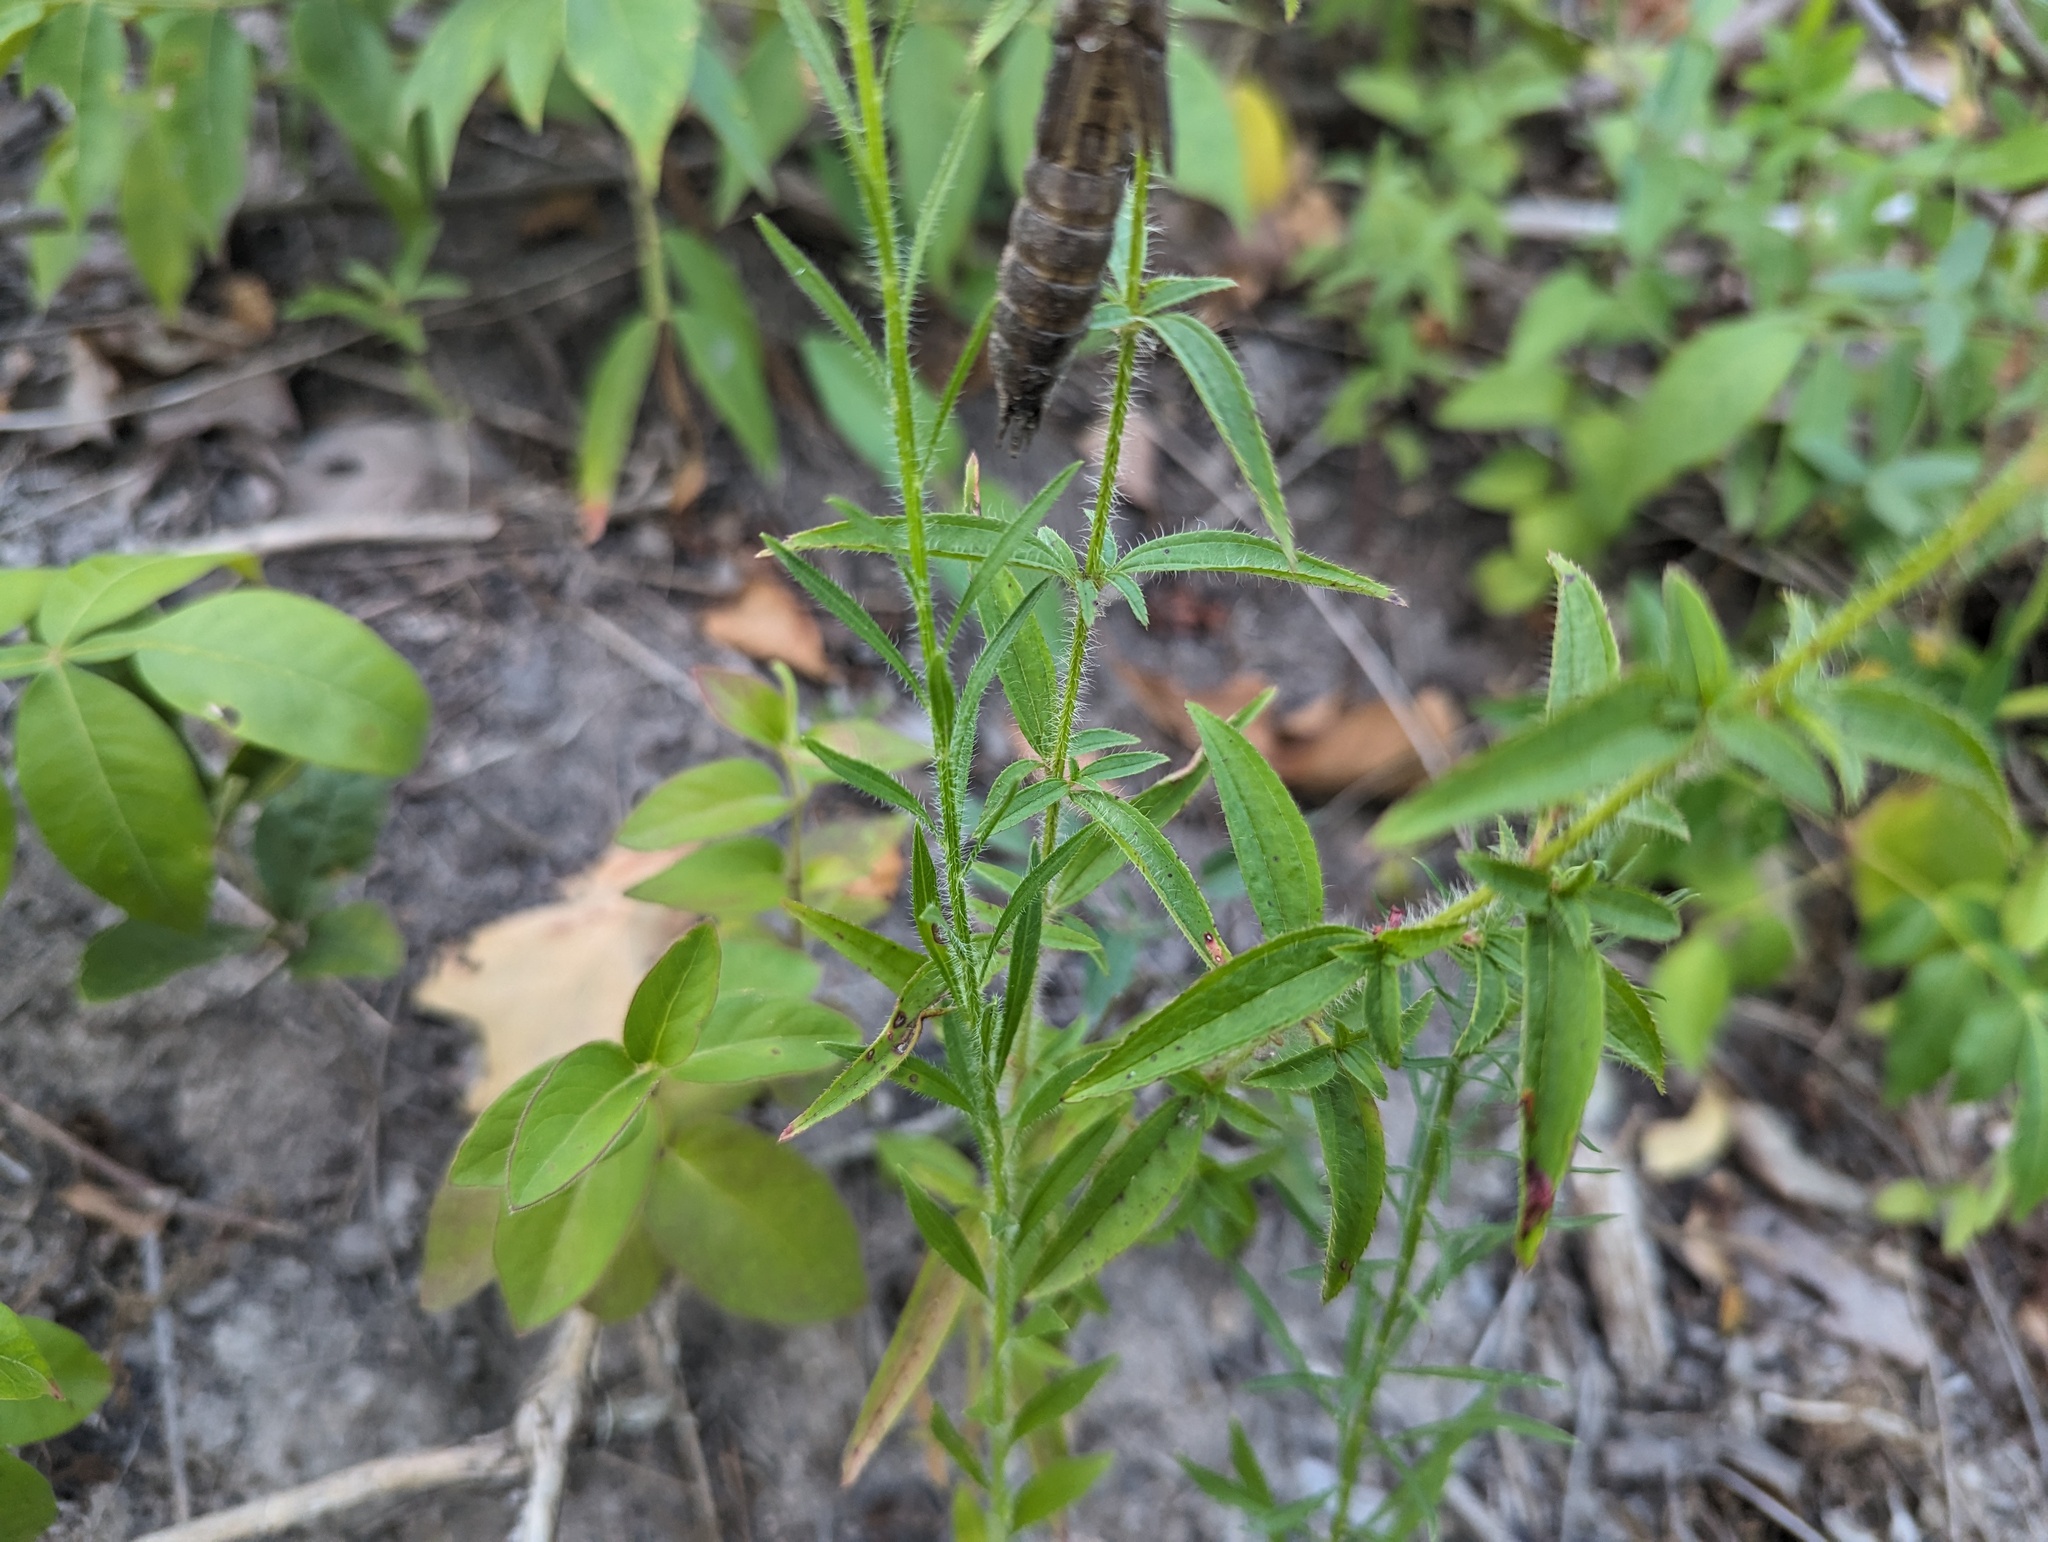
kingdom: Plantae
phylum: Tracheophyta
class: Magnoliopsida
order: Myrtales
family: Melastomataceae
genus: Rhexia
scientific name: Rhexia mariana
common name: Dull meadow-pitcher
